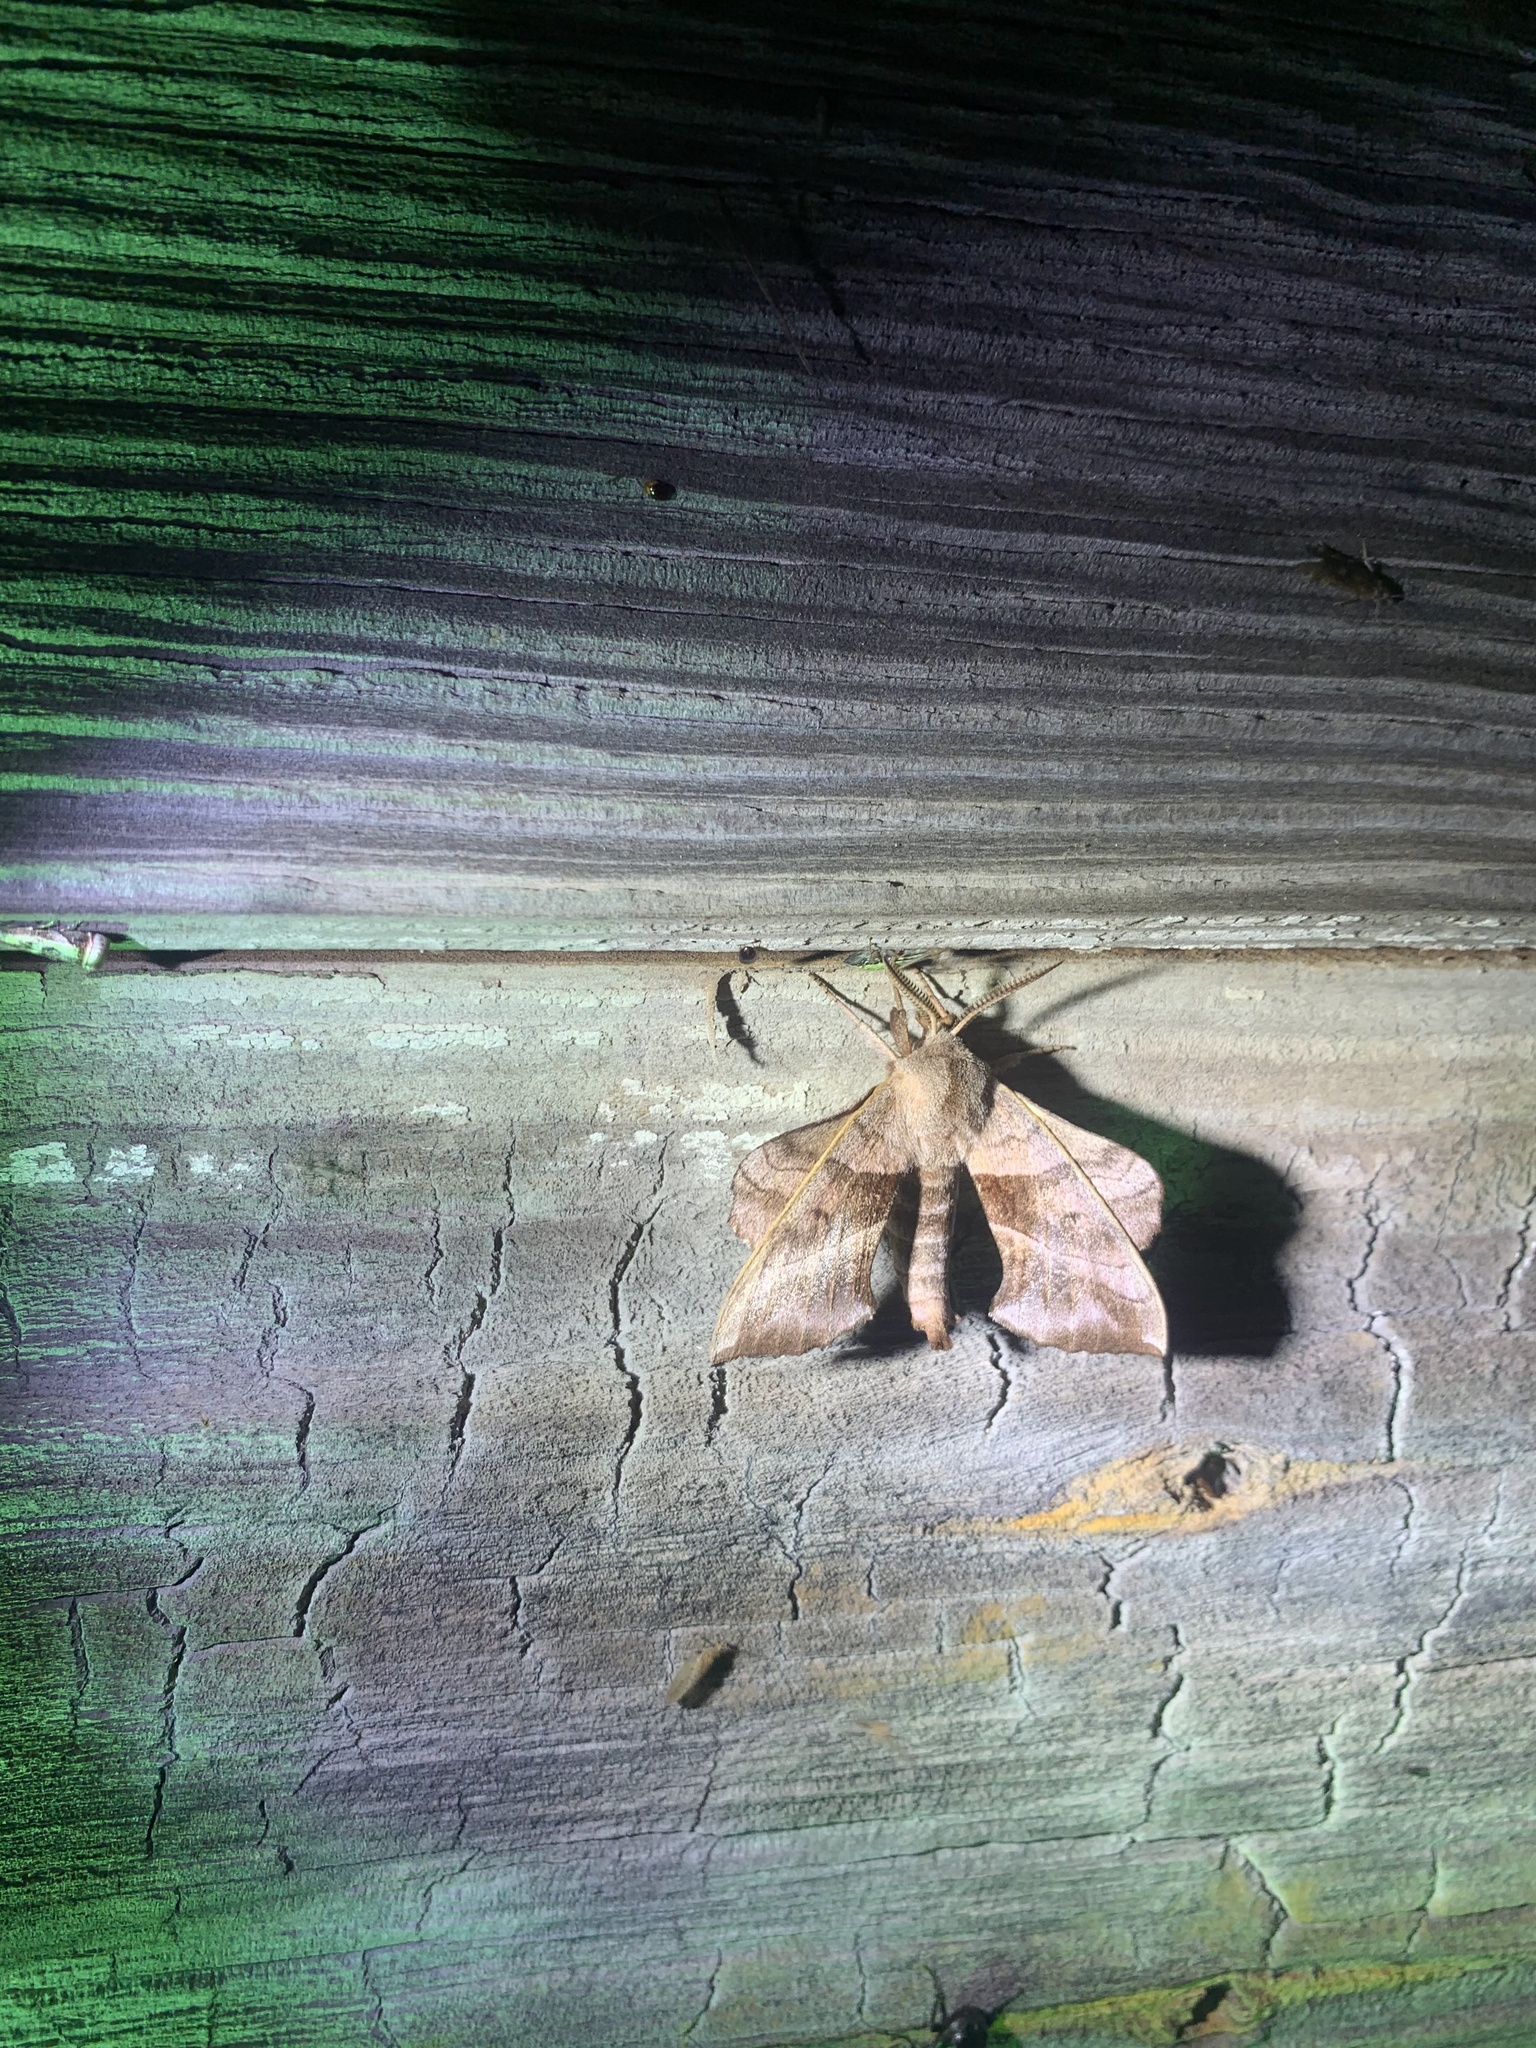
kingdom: Animalia
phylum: Arthropoda
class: Insecta
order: Lepidoptera
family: Sphingidae
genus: Amorpha
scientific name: Amorpha juglandis
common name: Walnut sphinx
